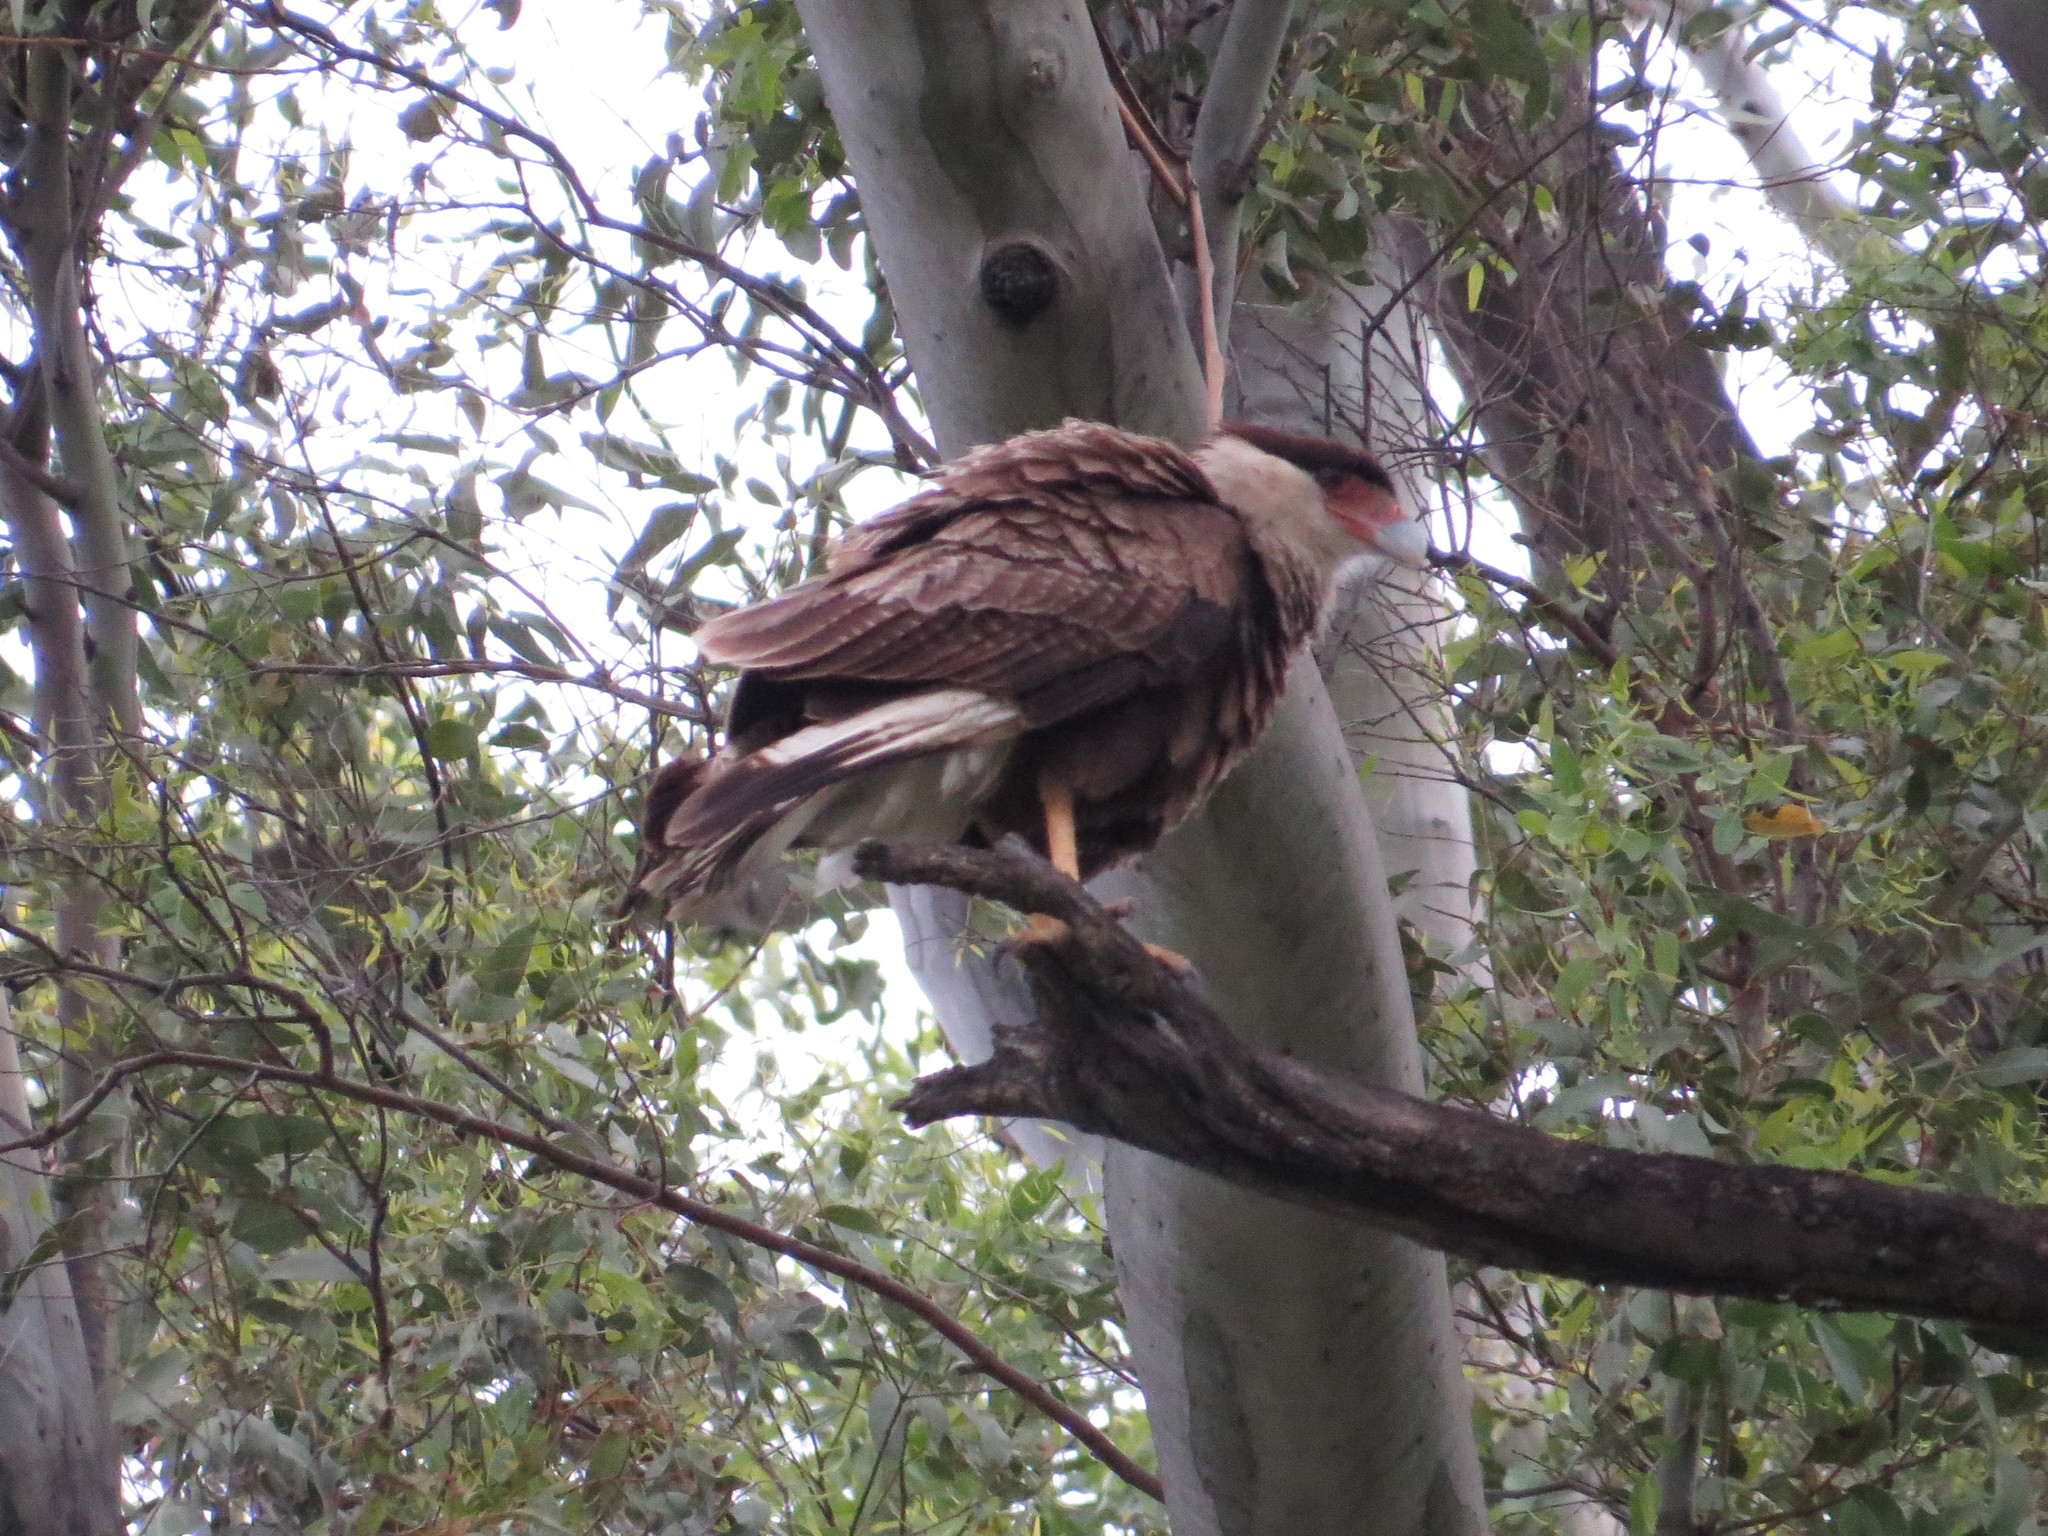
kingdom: Animalia
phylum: Chordata
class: Aves
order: Falconiformes
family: Falconidae
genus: Caracara
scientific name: Caracara plancus
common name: Southern caracara
